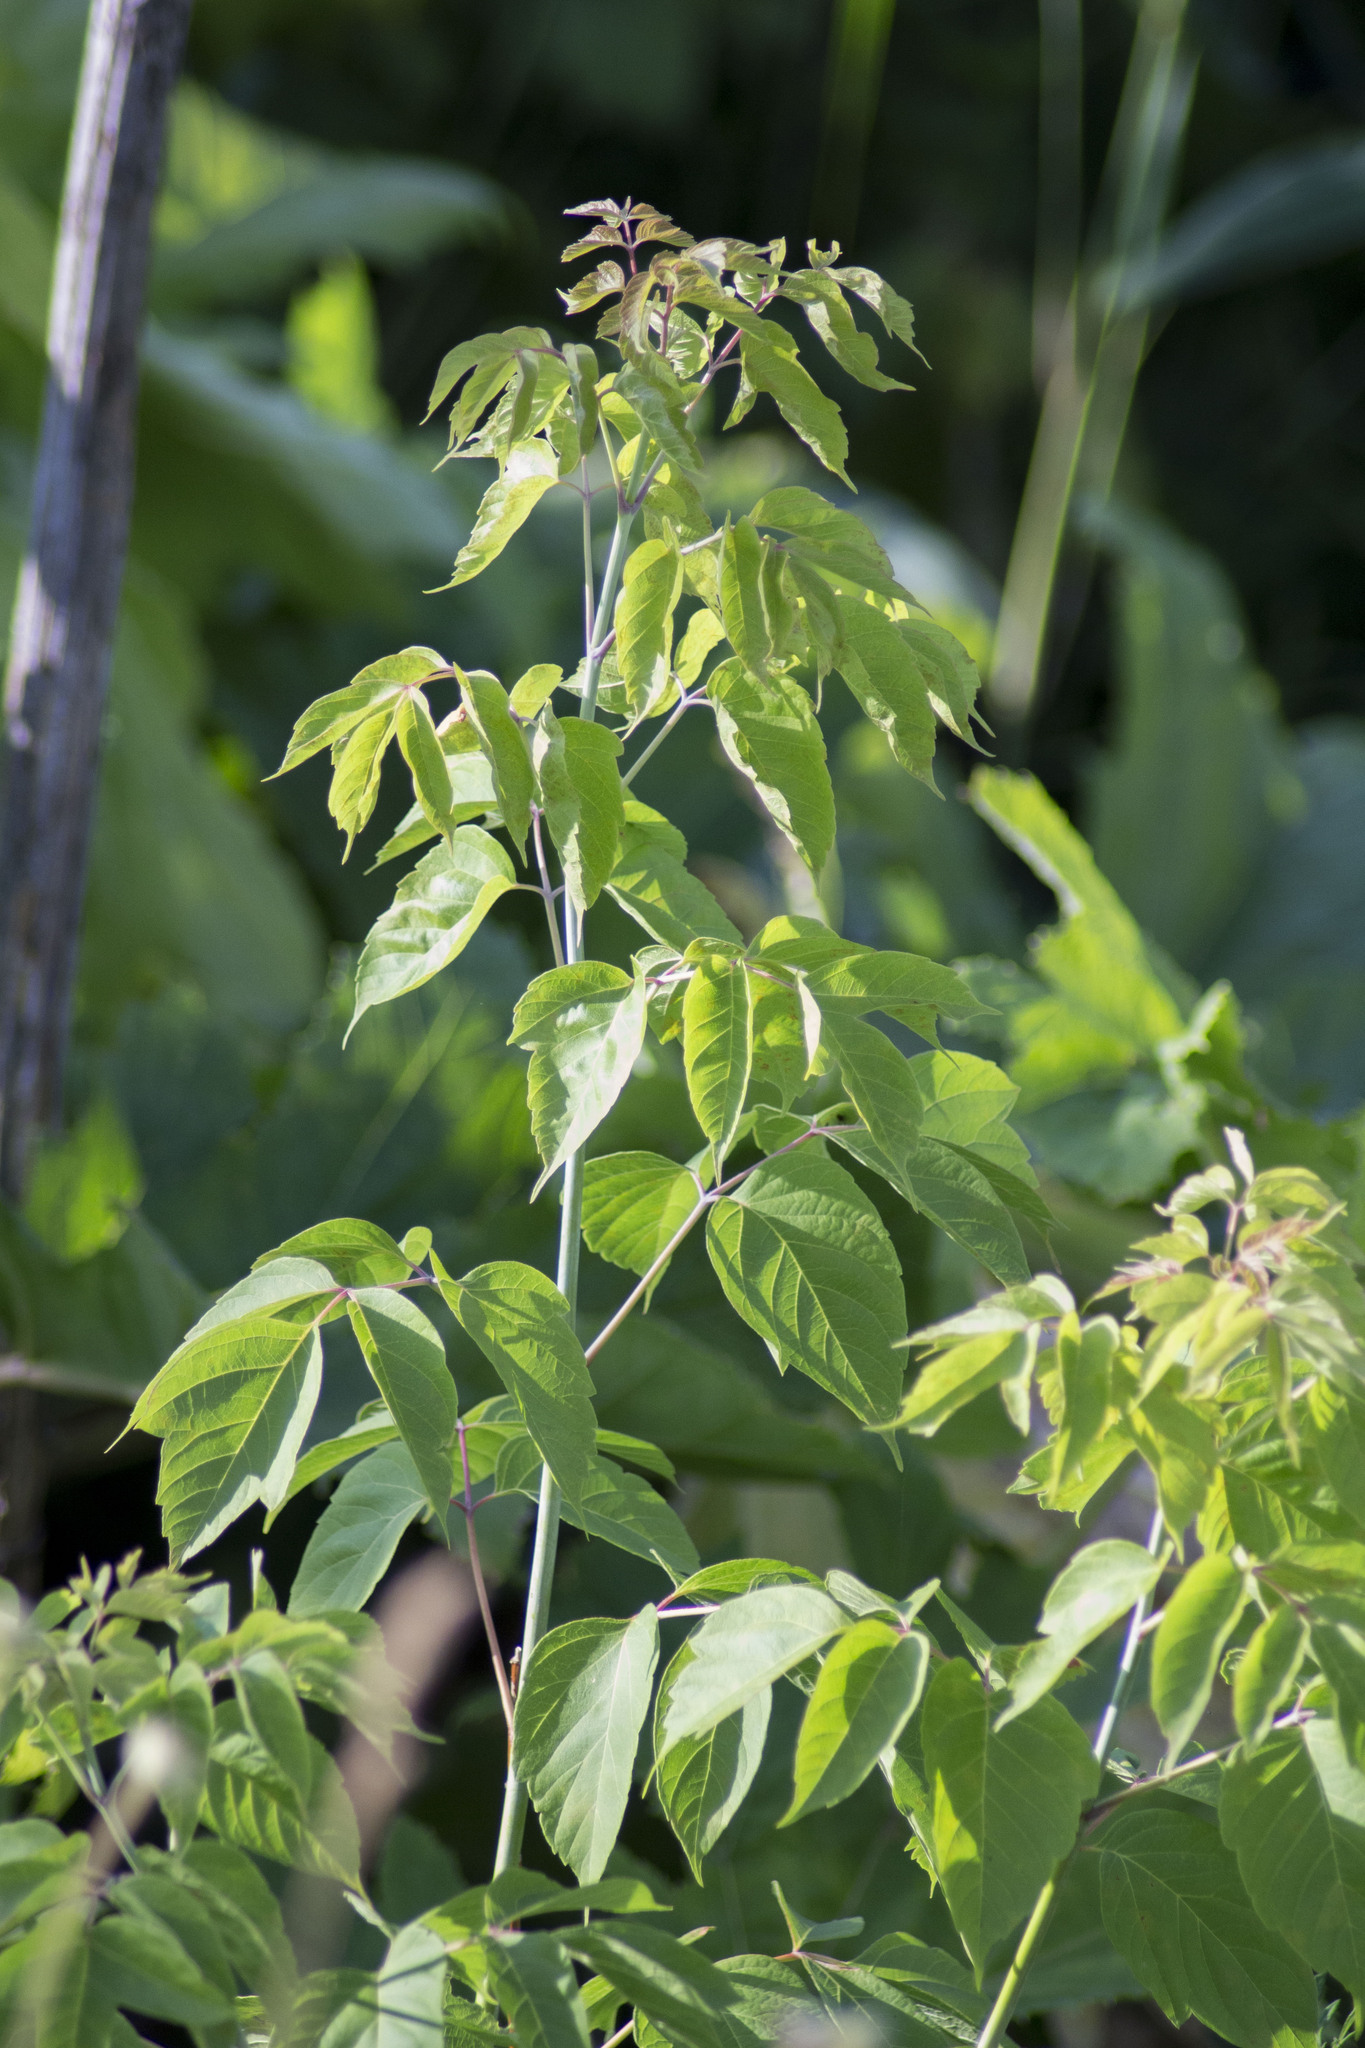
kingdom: Plantae
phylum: Tracheophyta
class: Magnoliopsida
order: Sapindales
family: Sapindaceae
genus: Acer
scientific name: Acer negundo
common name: Ashleaf maple
